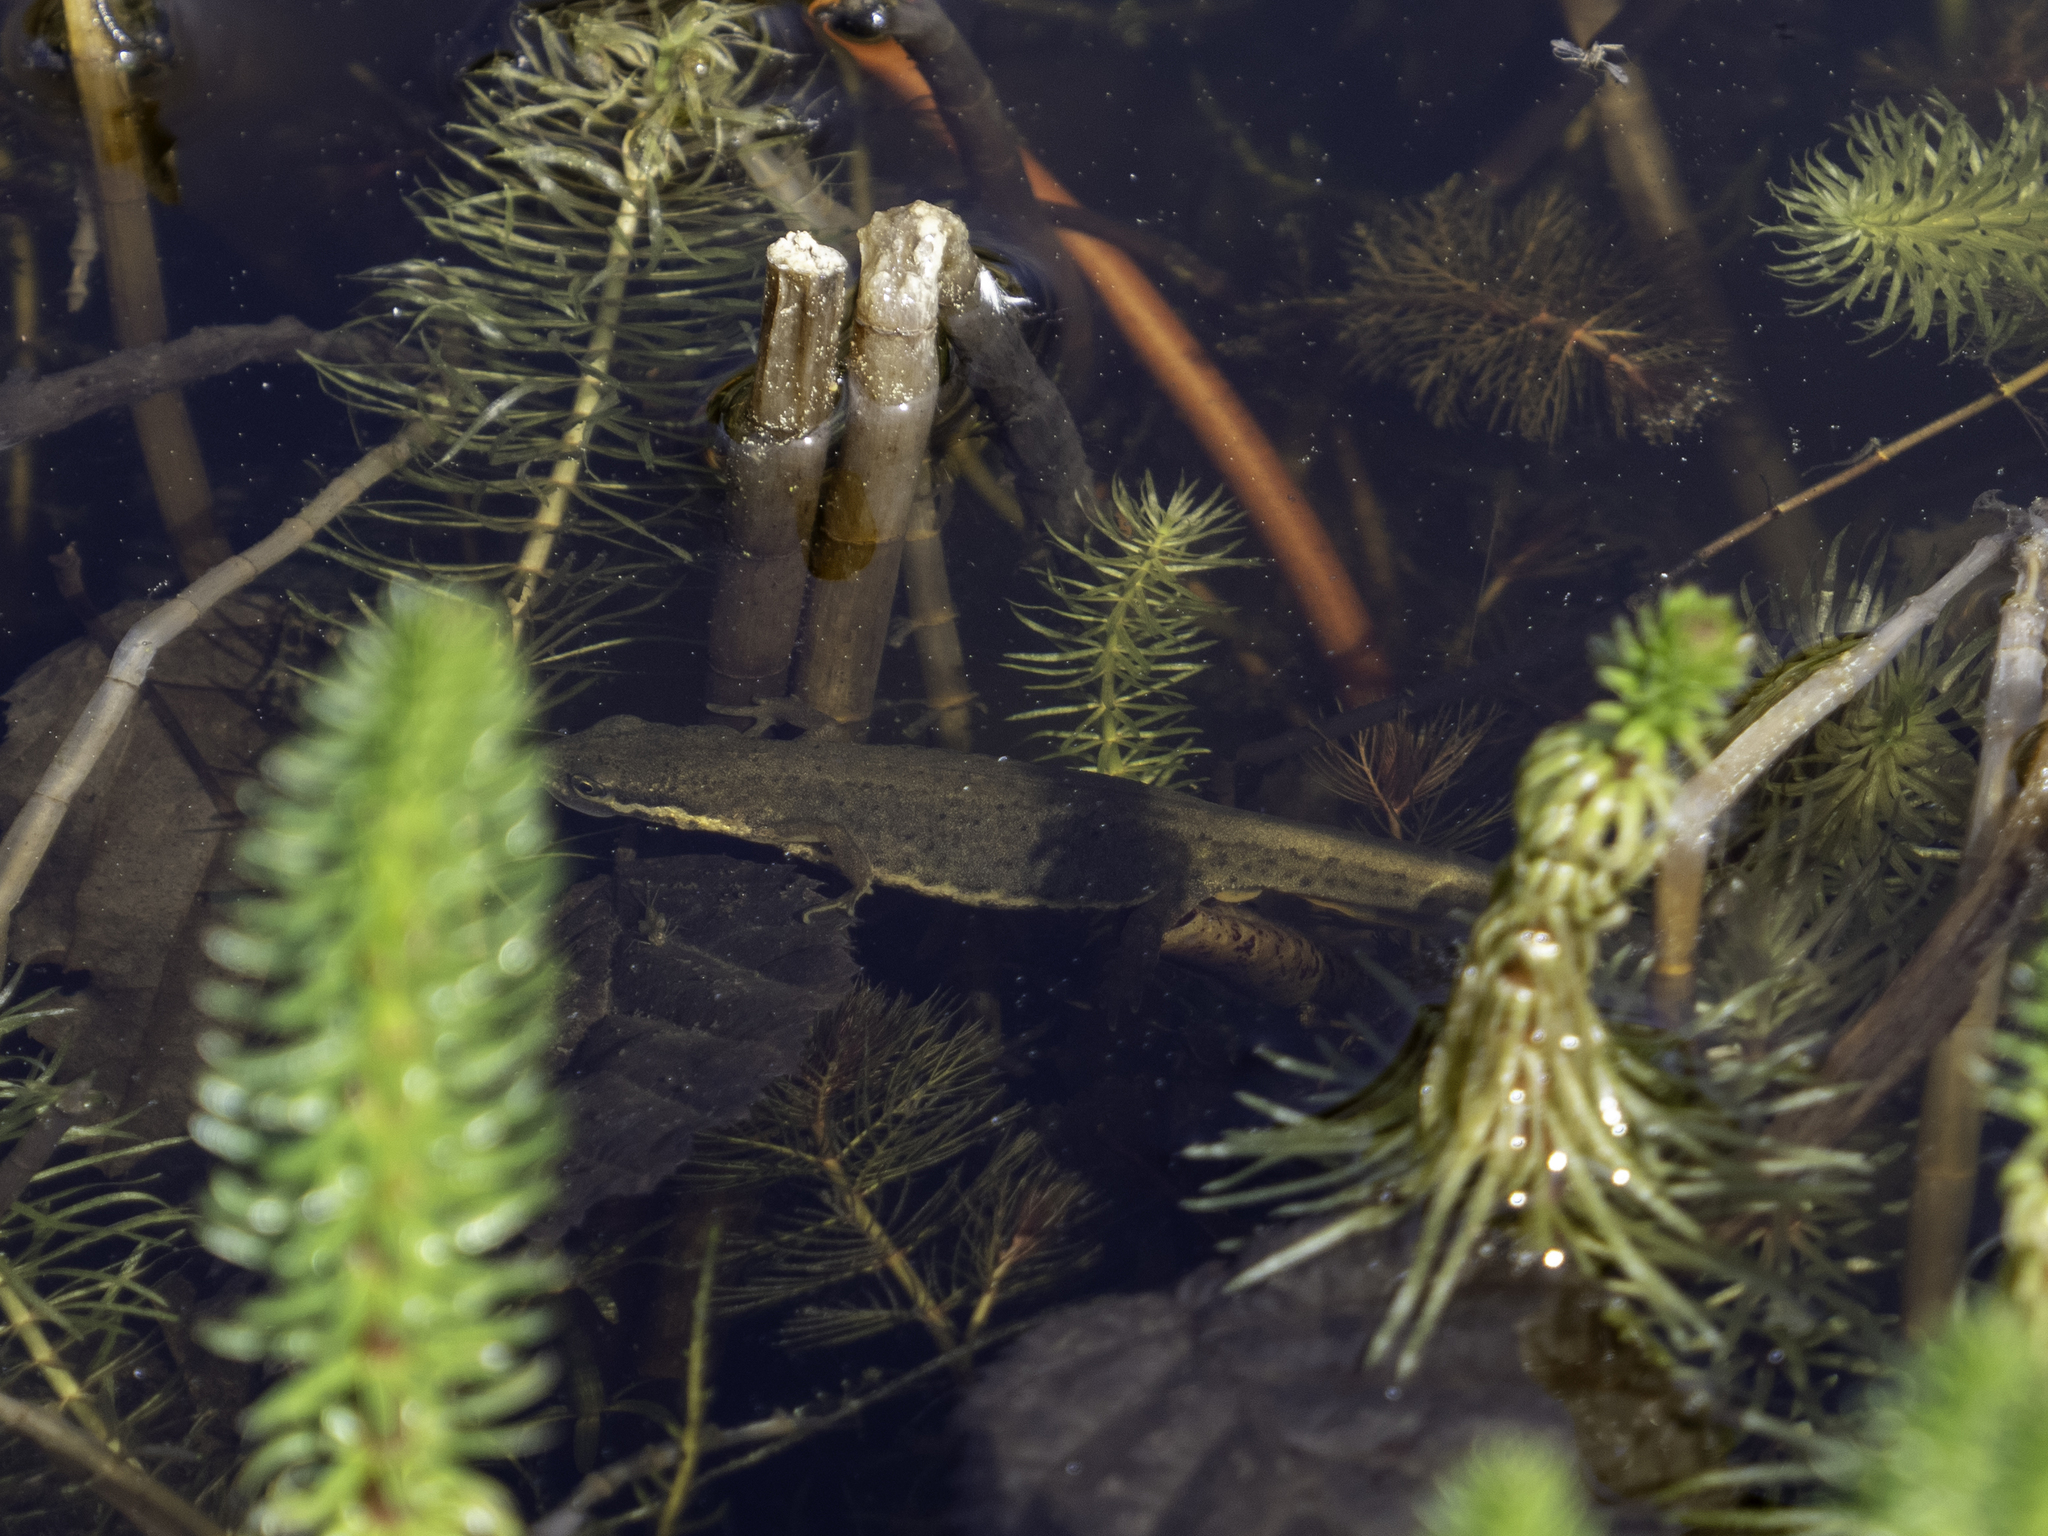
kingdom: Animalia
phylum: Chordata
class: Amphibia
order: Caudata
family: Salamandridae
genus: Lissotriton
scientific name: Lissotriton vulgaris
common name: Smooth newt
